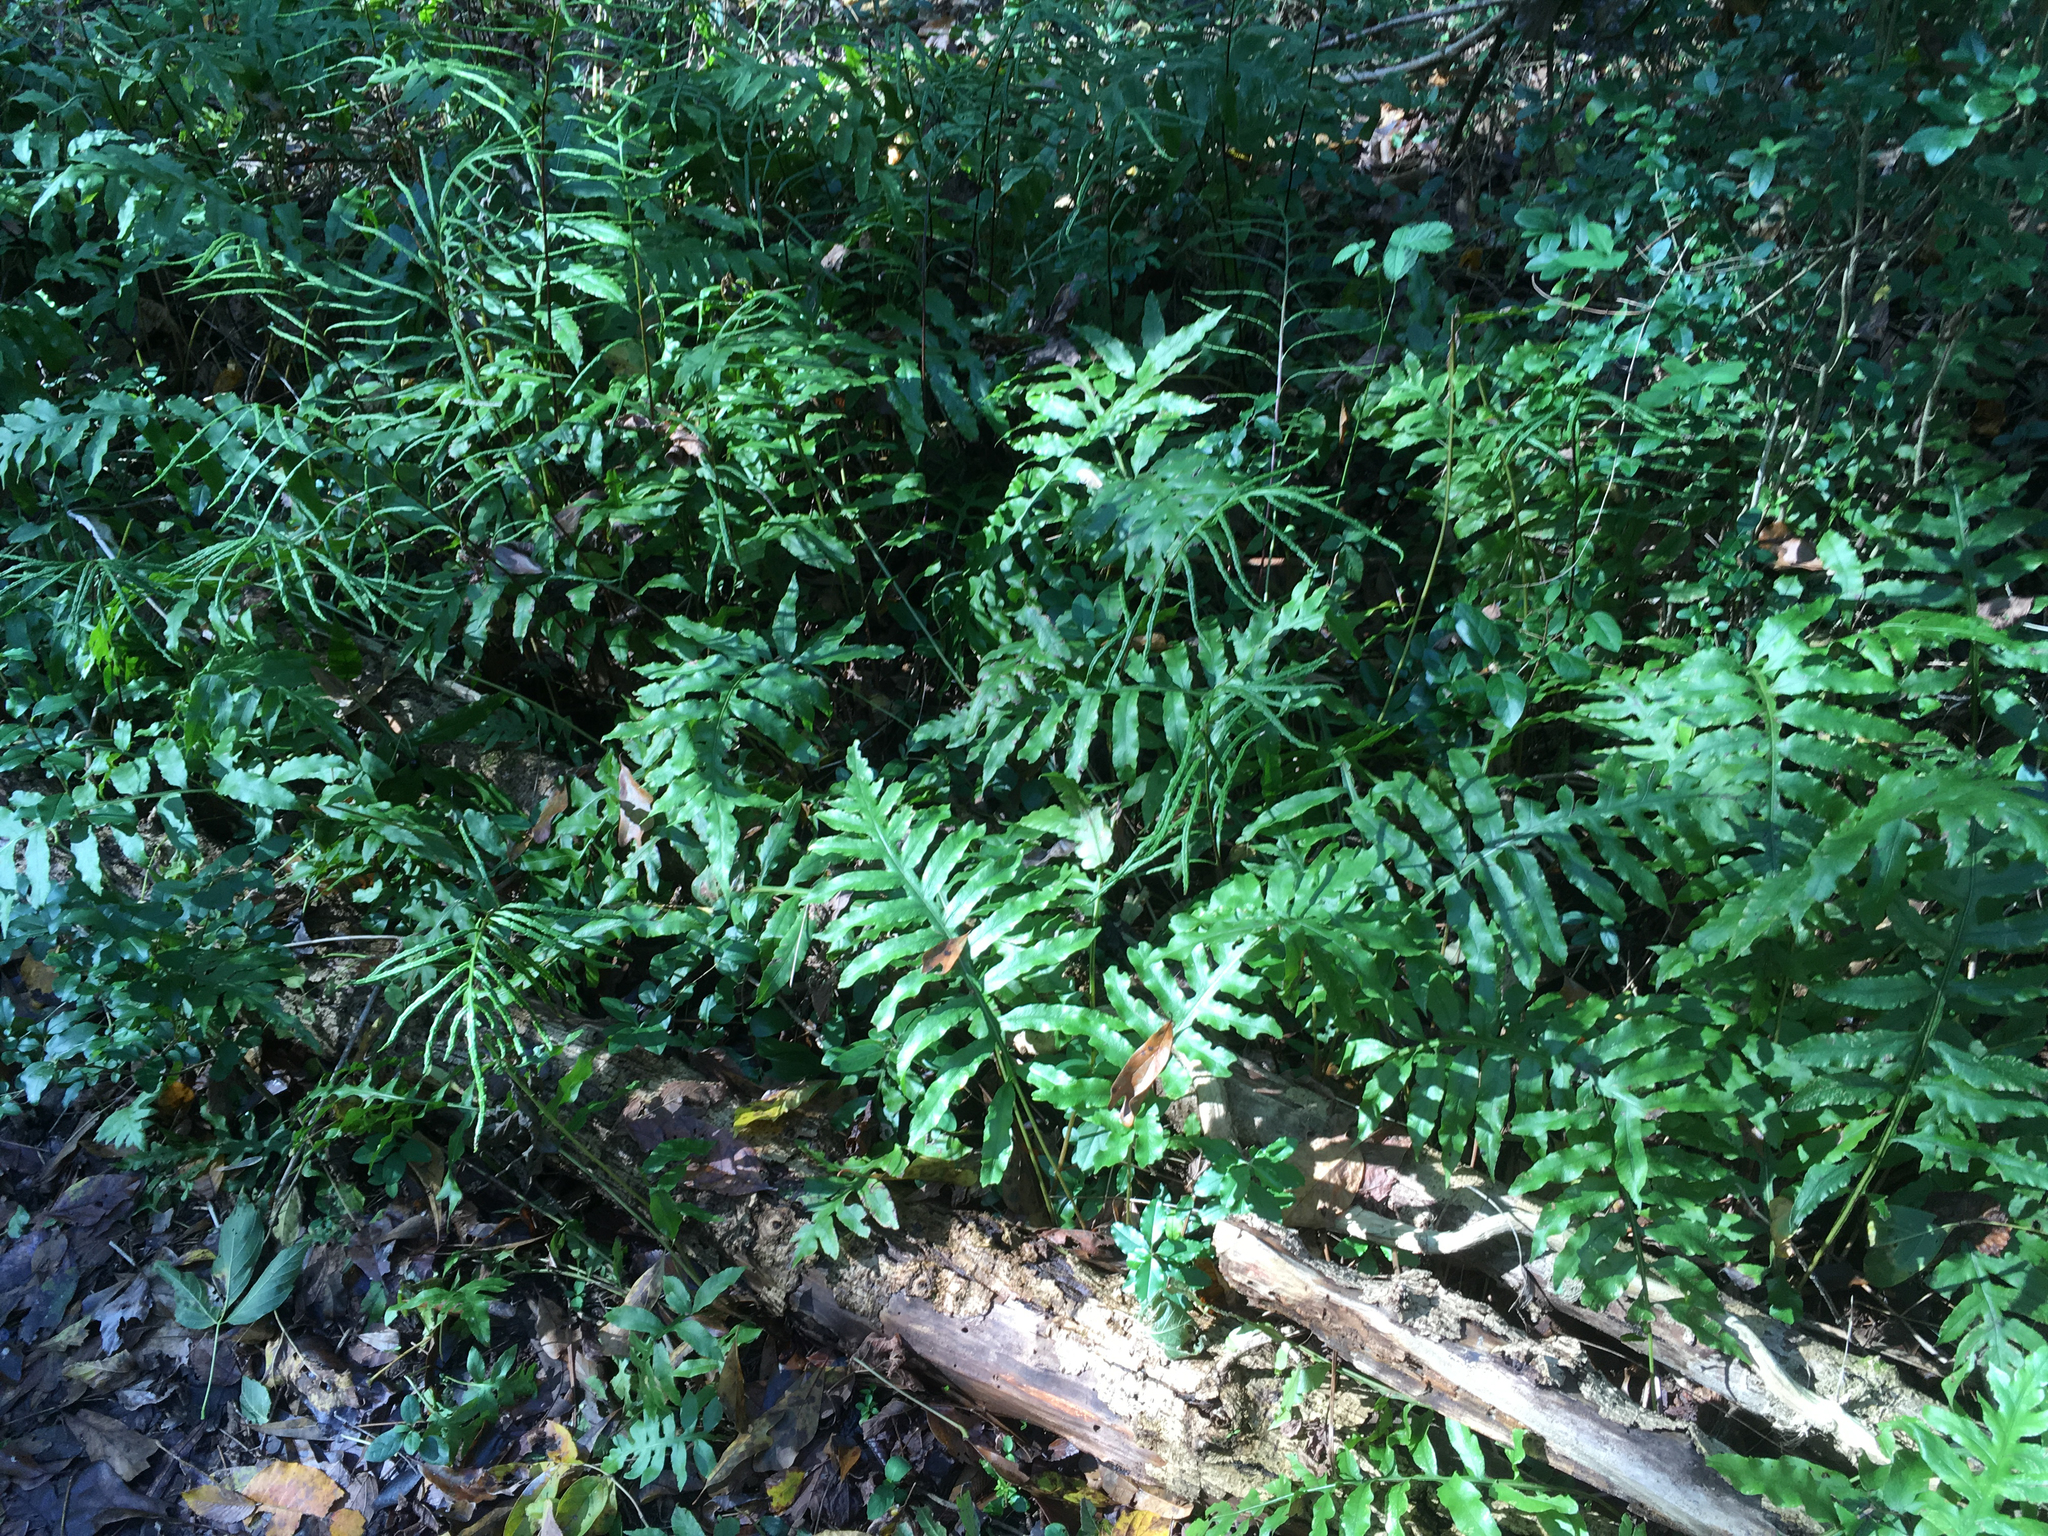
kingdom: Plantae
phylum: Tracheophyta
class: Polypodiopsida
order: Polypodiales
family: Blechnaceae
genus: Lorinseria
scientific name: Lorinseria areolata
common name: Dwarf chain fern
